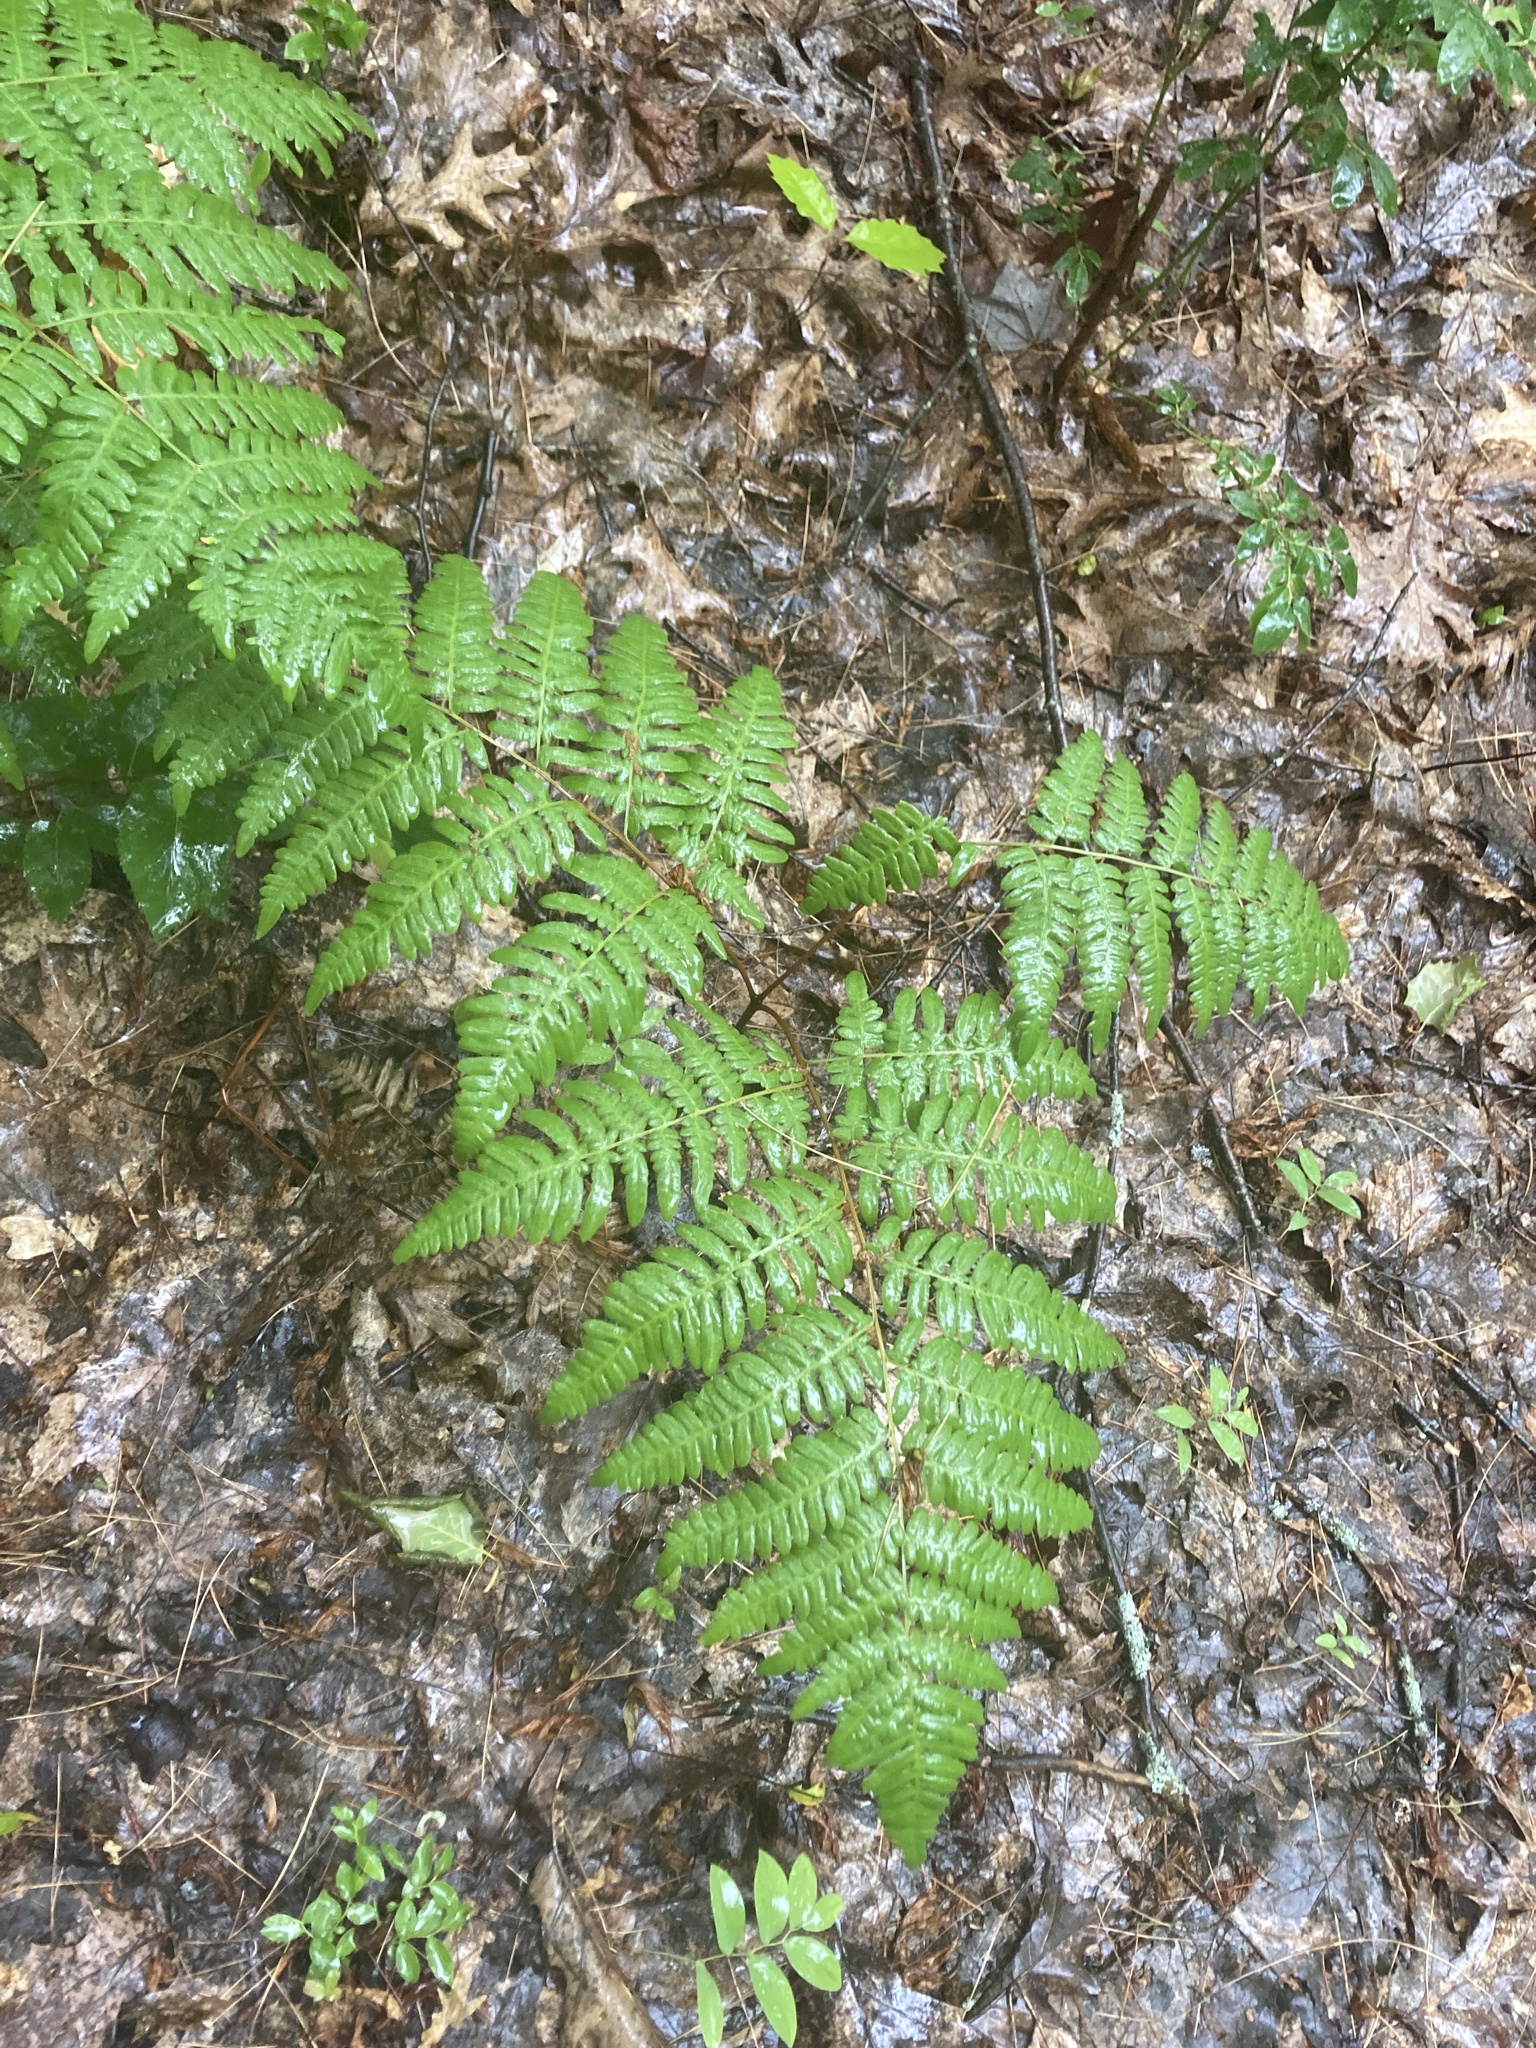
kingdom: Plantae
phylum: Tracheophyta
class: Polypodiopsida
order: Polypodiales
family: Dennstaedtiaceae
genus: Pteridium
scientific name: Pteridium aquilinum
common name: Bracken
